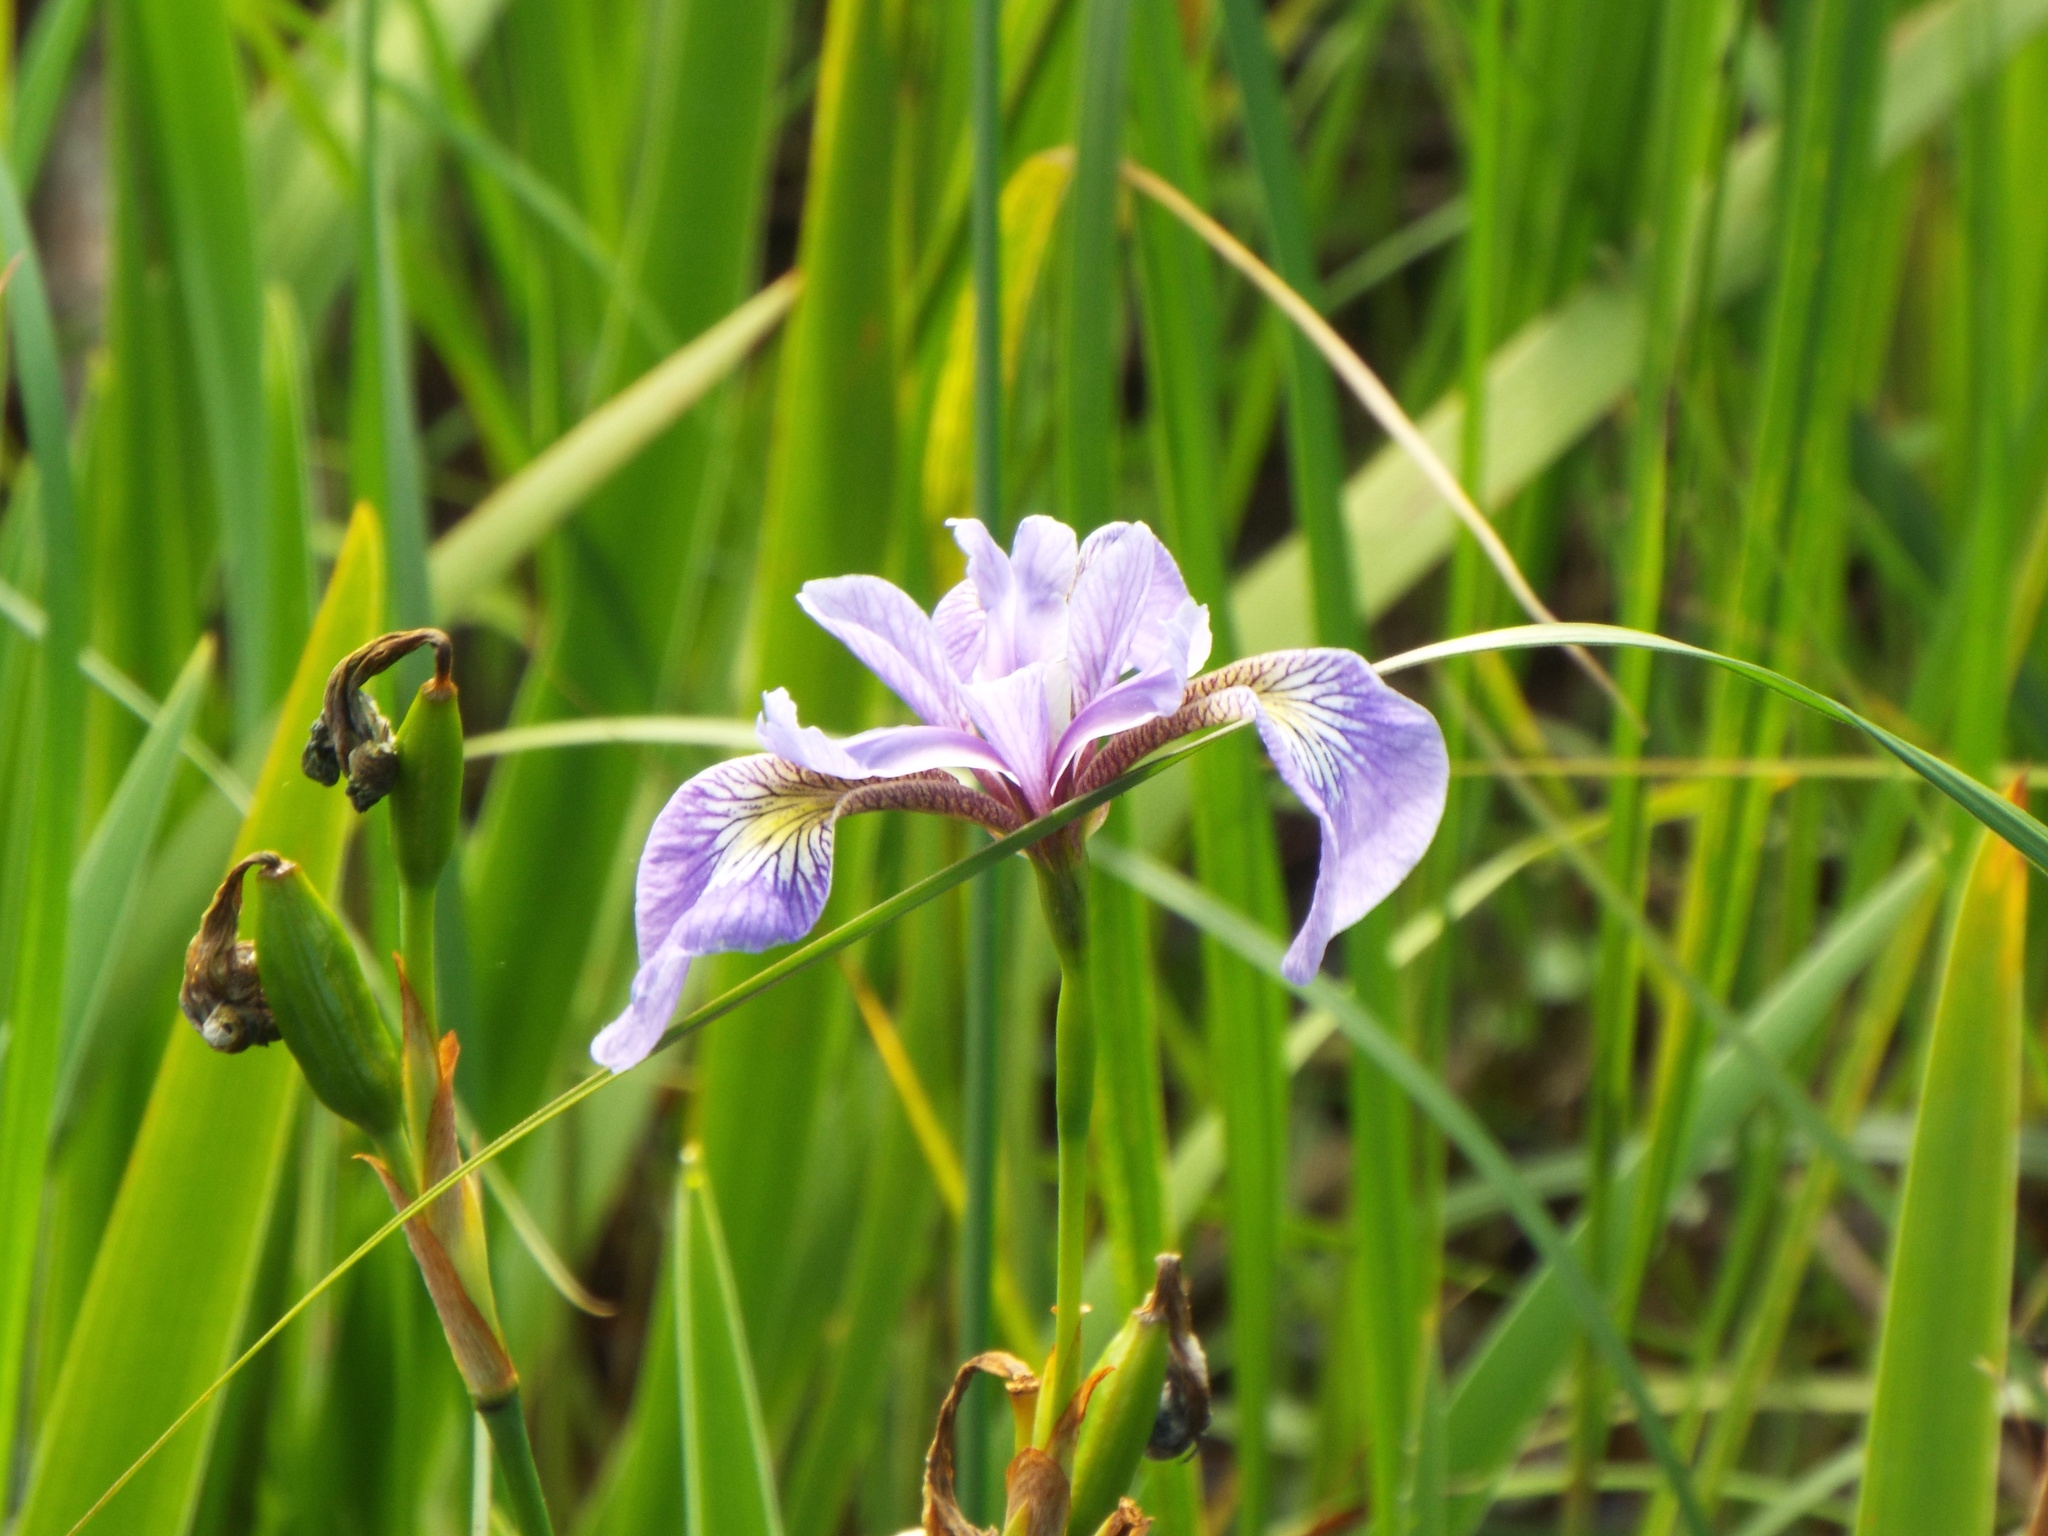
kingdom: Plantae
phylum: Tracheophyta
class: Liliopsida
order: Asparagales
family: Iridaceae
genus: Iris
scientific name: Iris versicolor
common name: Purple iris
